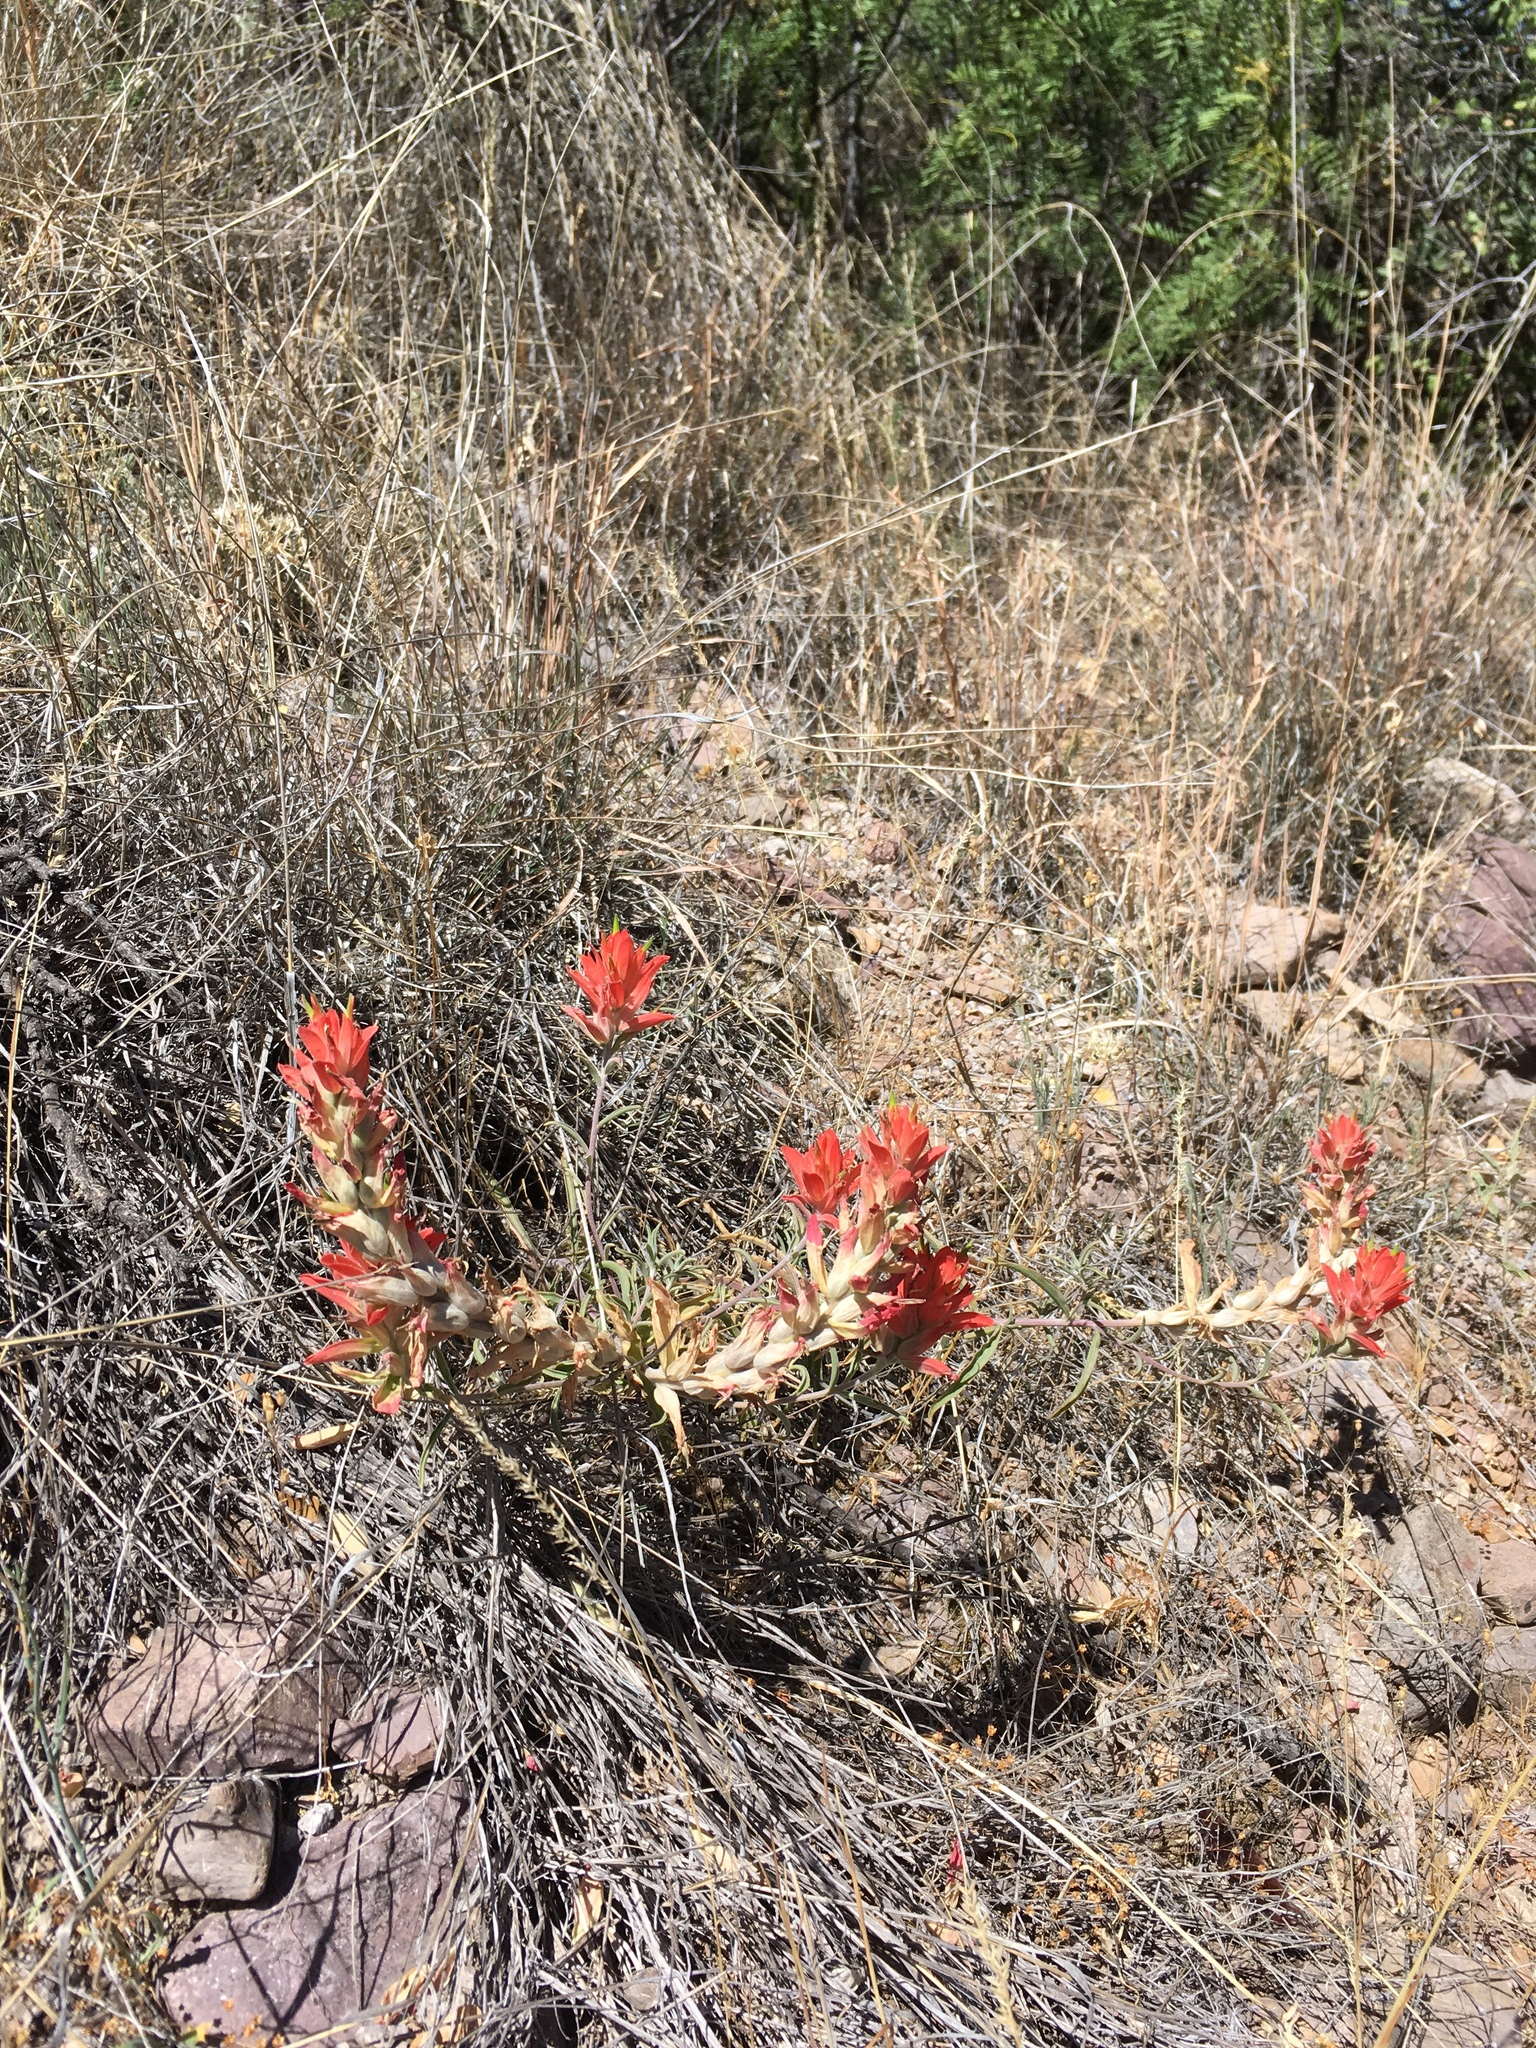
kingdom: Plantae
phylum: Tracheophyta
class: Magnoliopsida
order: Lamiales
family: Orobanchaceae
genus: Castilleja
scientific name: Castilleja integra
